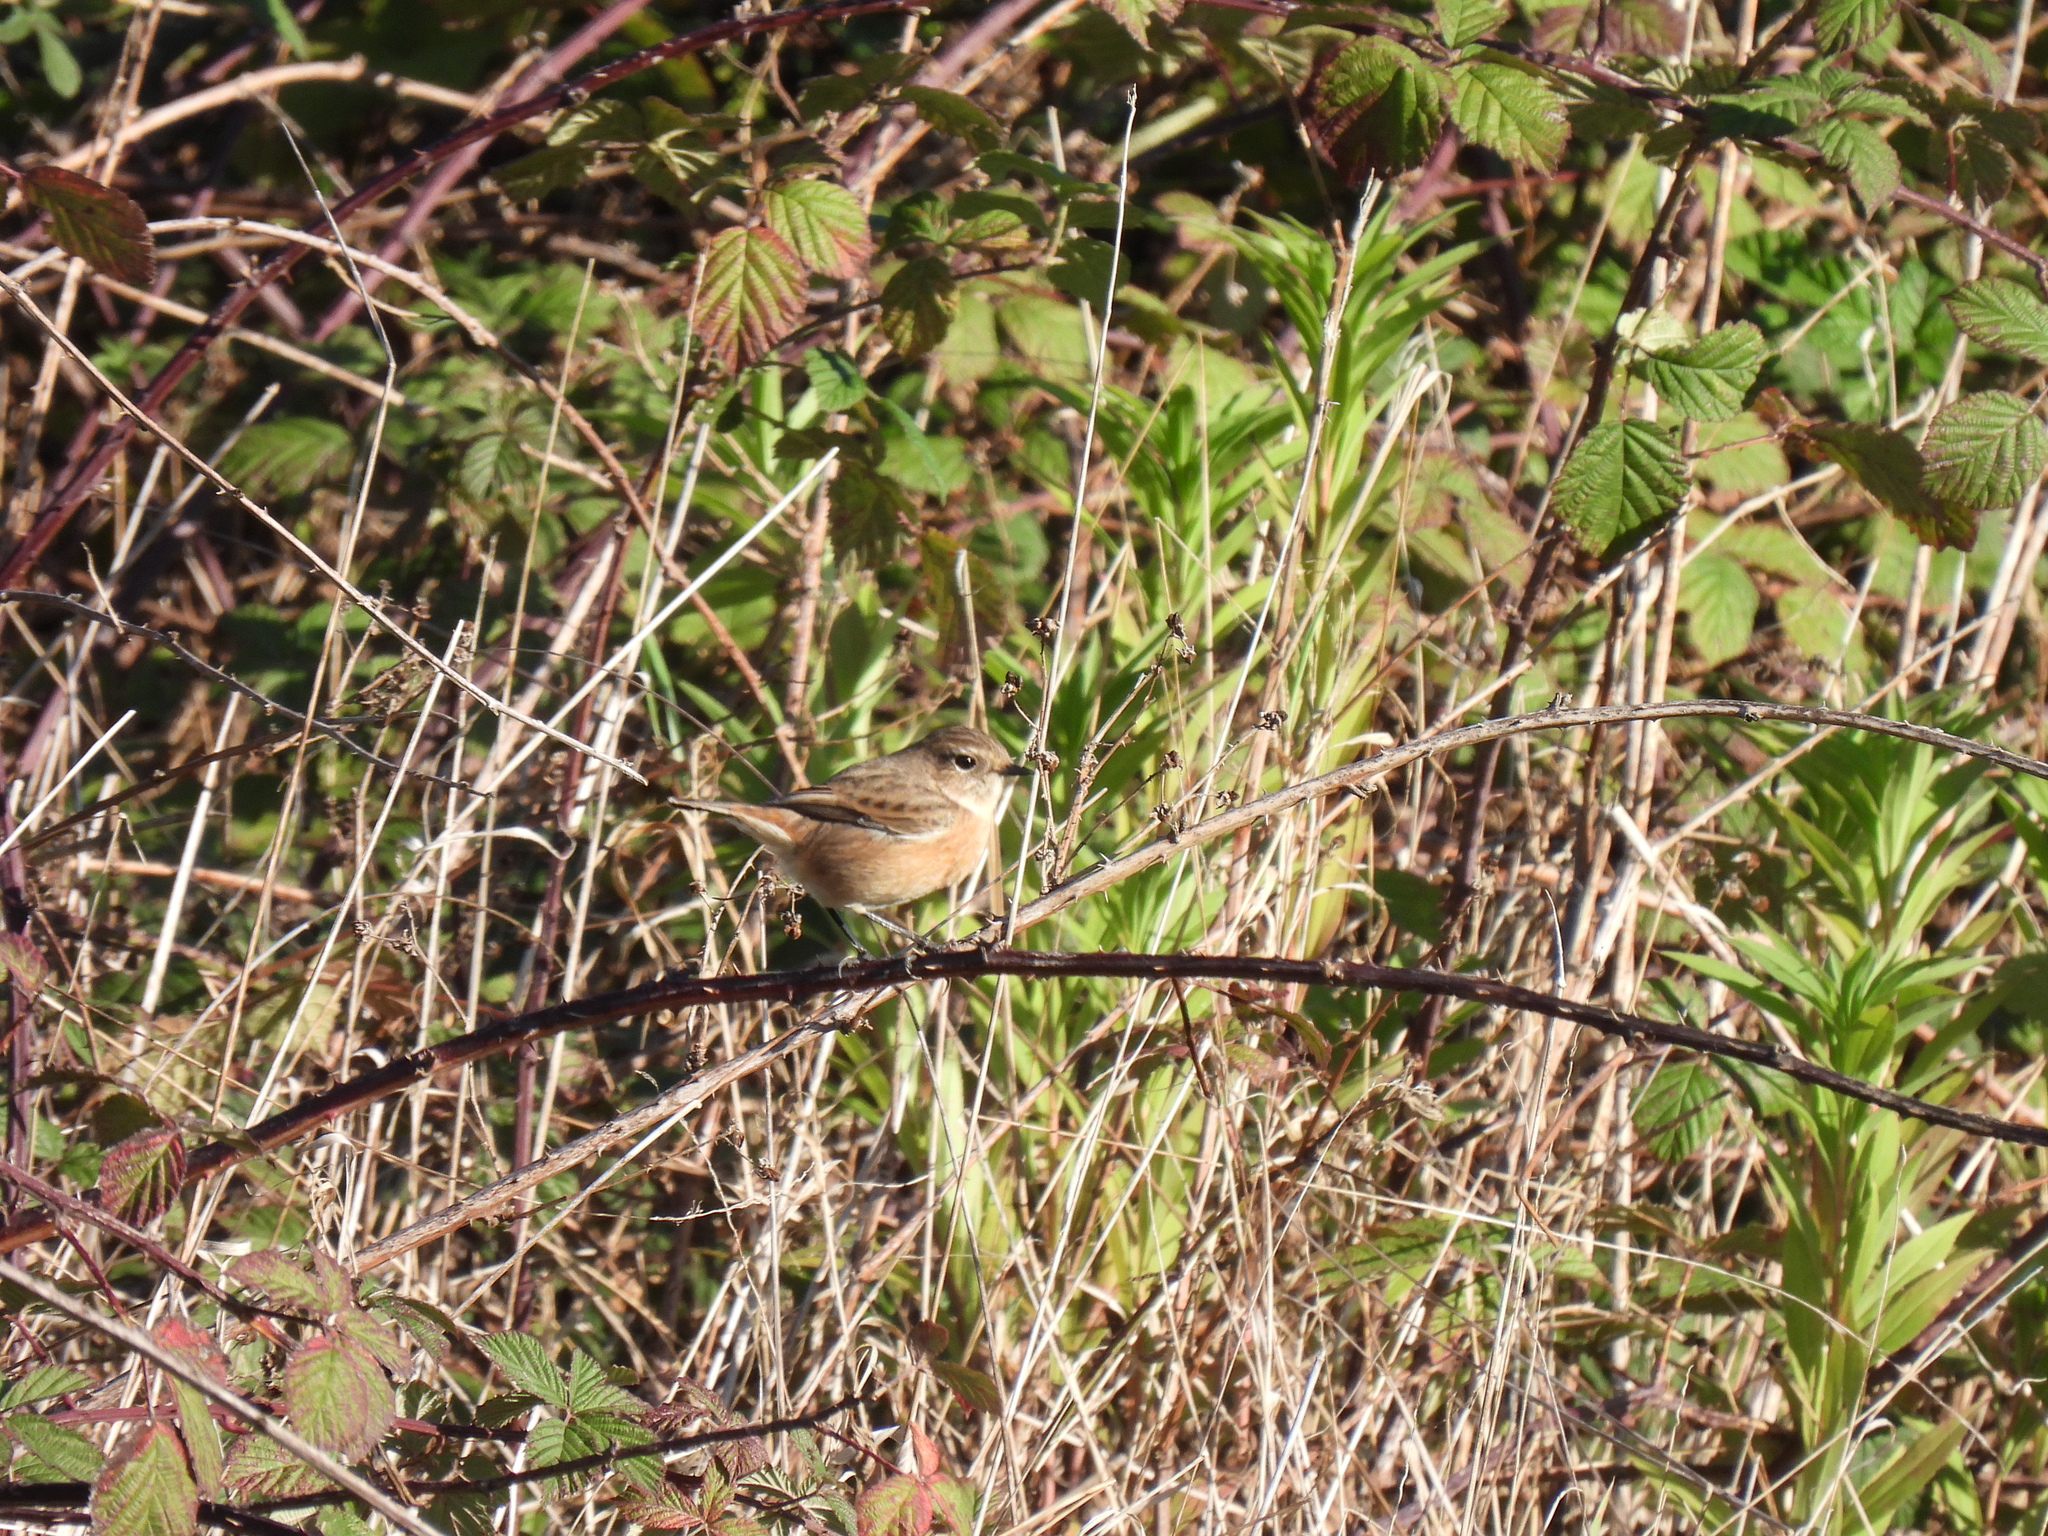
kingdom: Animalia
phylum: Chordata
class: Aves
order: Passeriformes
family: Muscicapidae
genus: Saxicola
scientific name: Saxicola rubicola
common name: European stonechat
